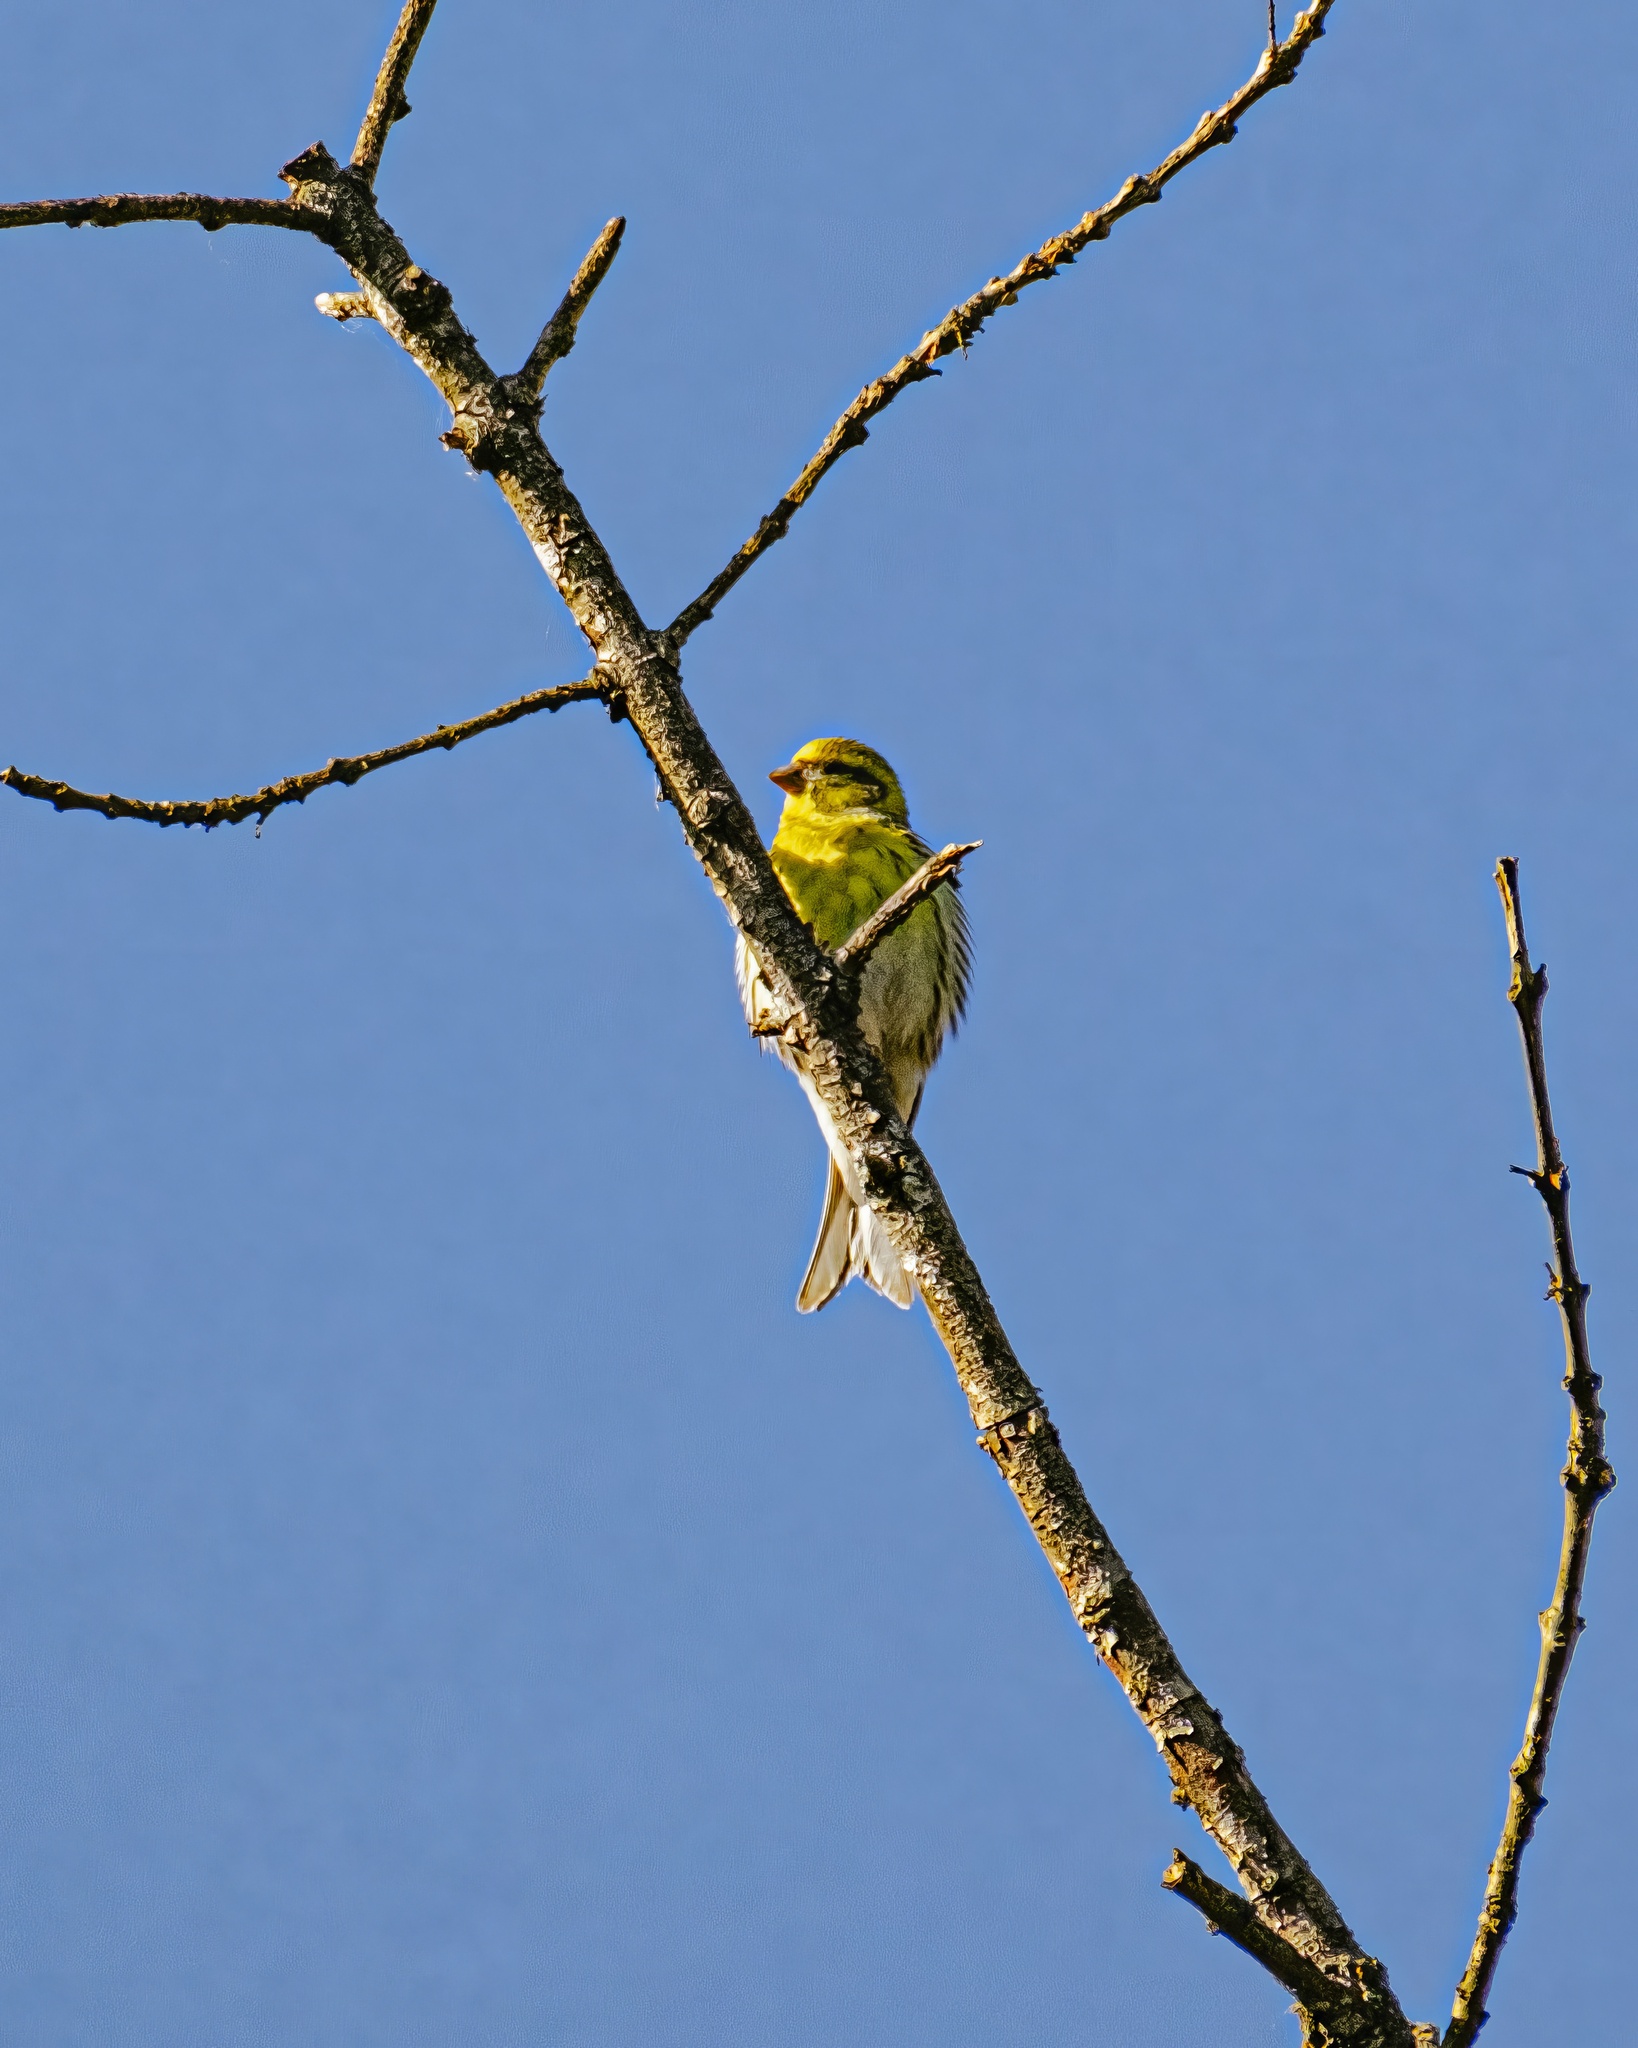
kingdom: Animalia
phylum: Chordata
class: Aves
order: Passeriformes
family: Fringillidae
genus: Serinus
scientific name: Serinus serinus
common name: European serin
